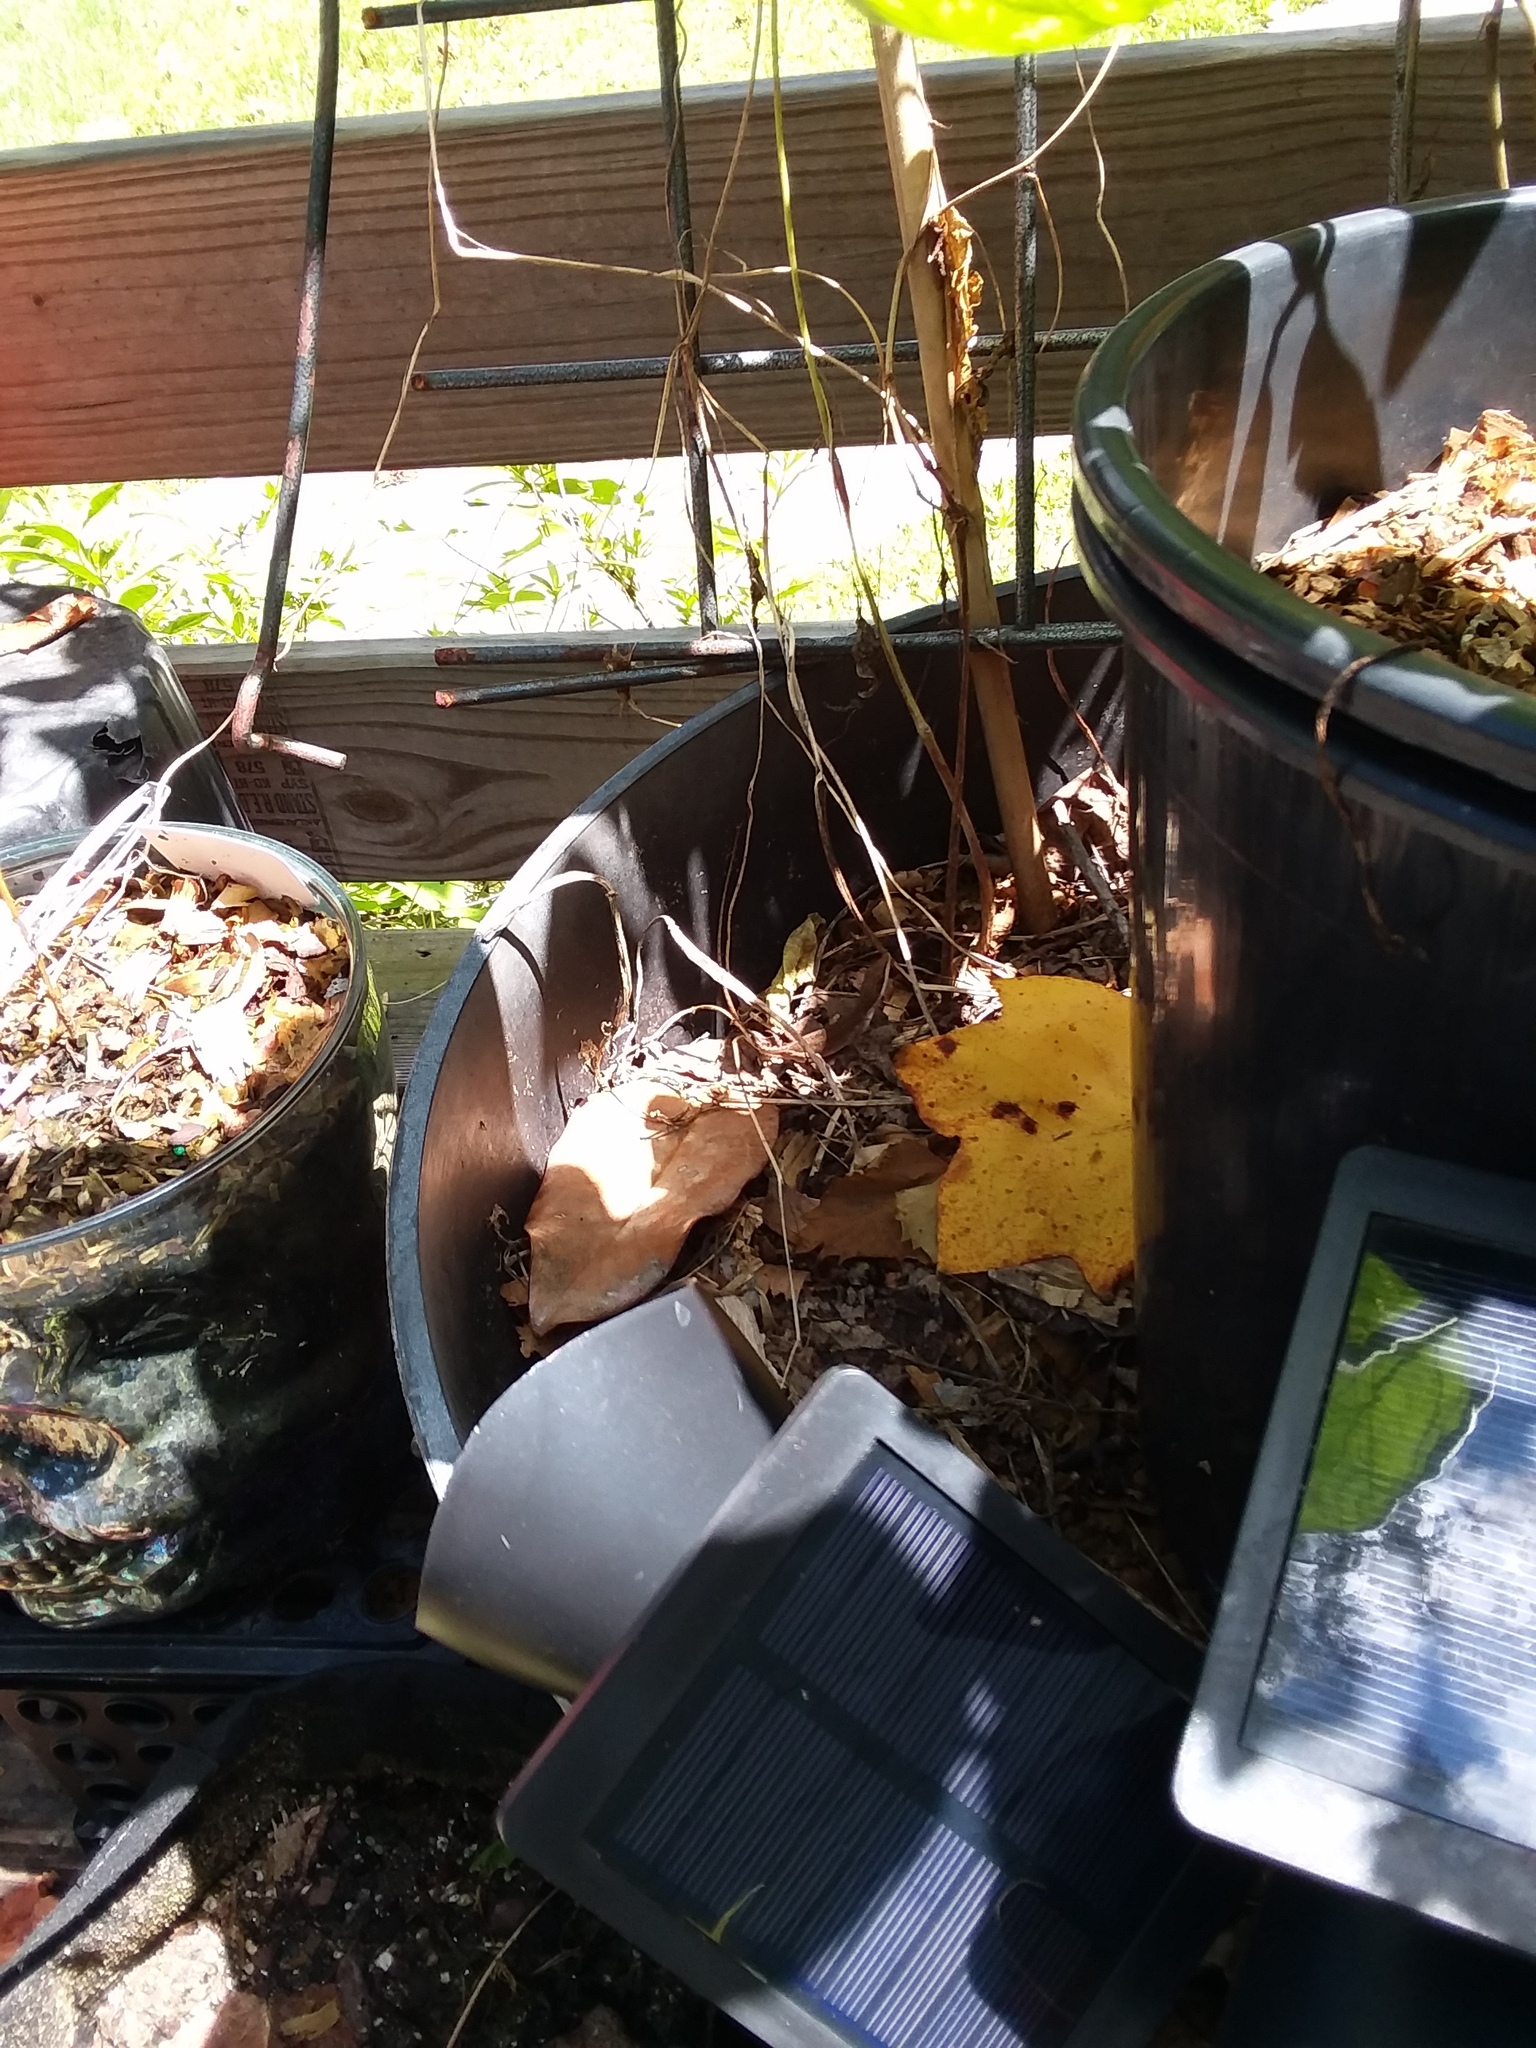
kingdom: Animalia
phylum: Chordata
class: Squamata
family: Dactyloidae
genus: Anolis
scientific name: Anolis carolinensis
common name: Green anole
